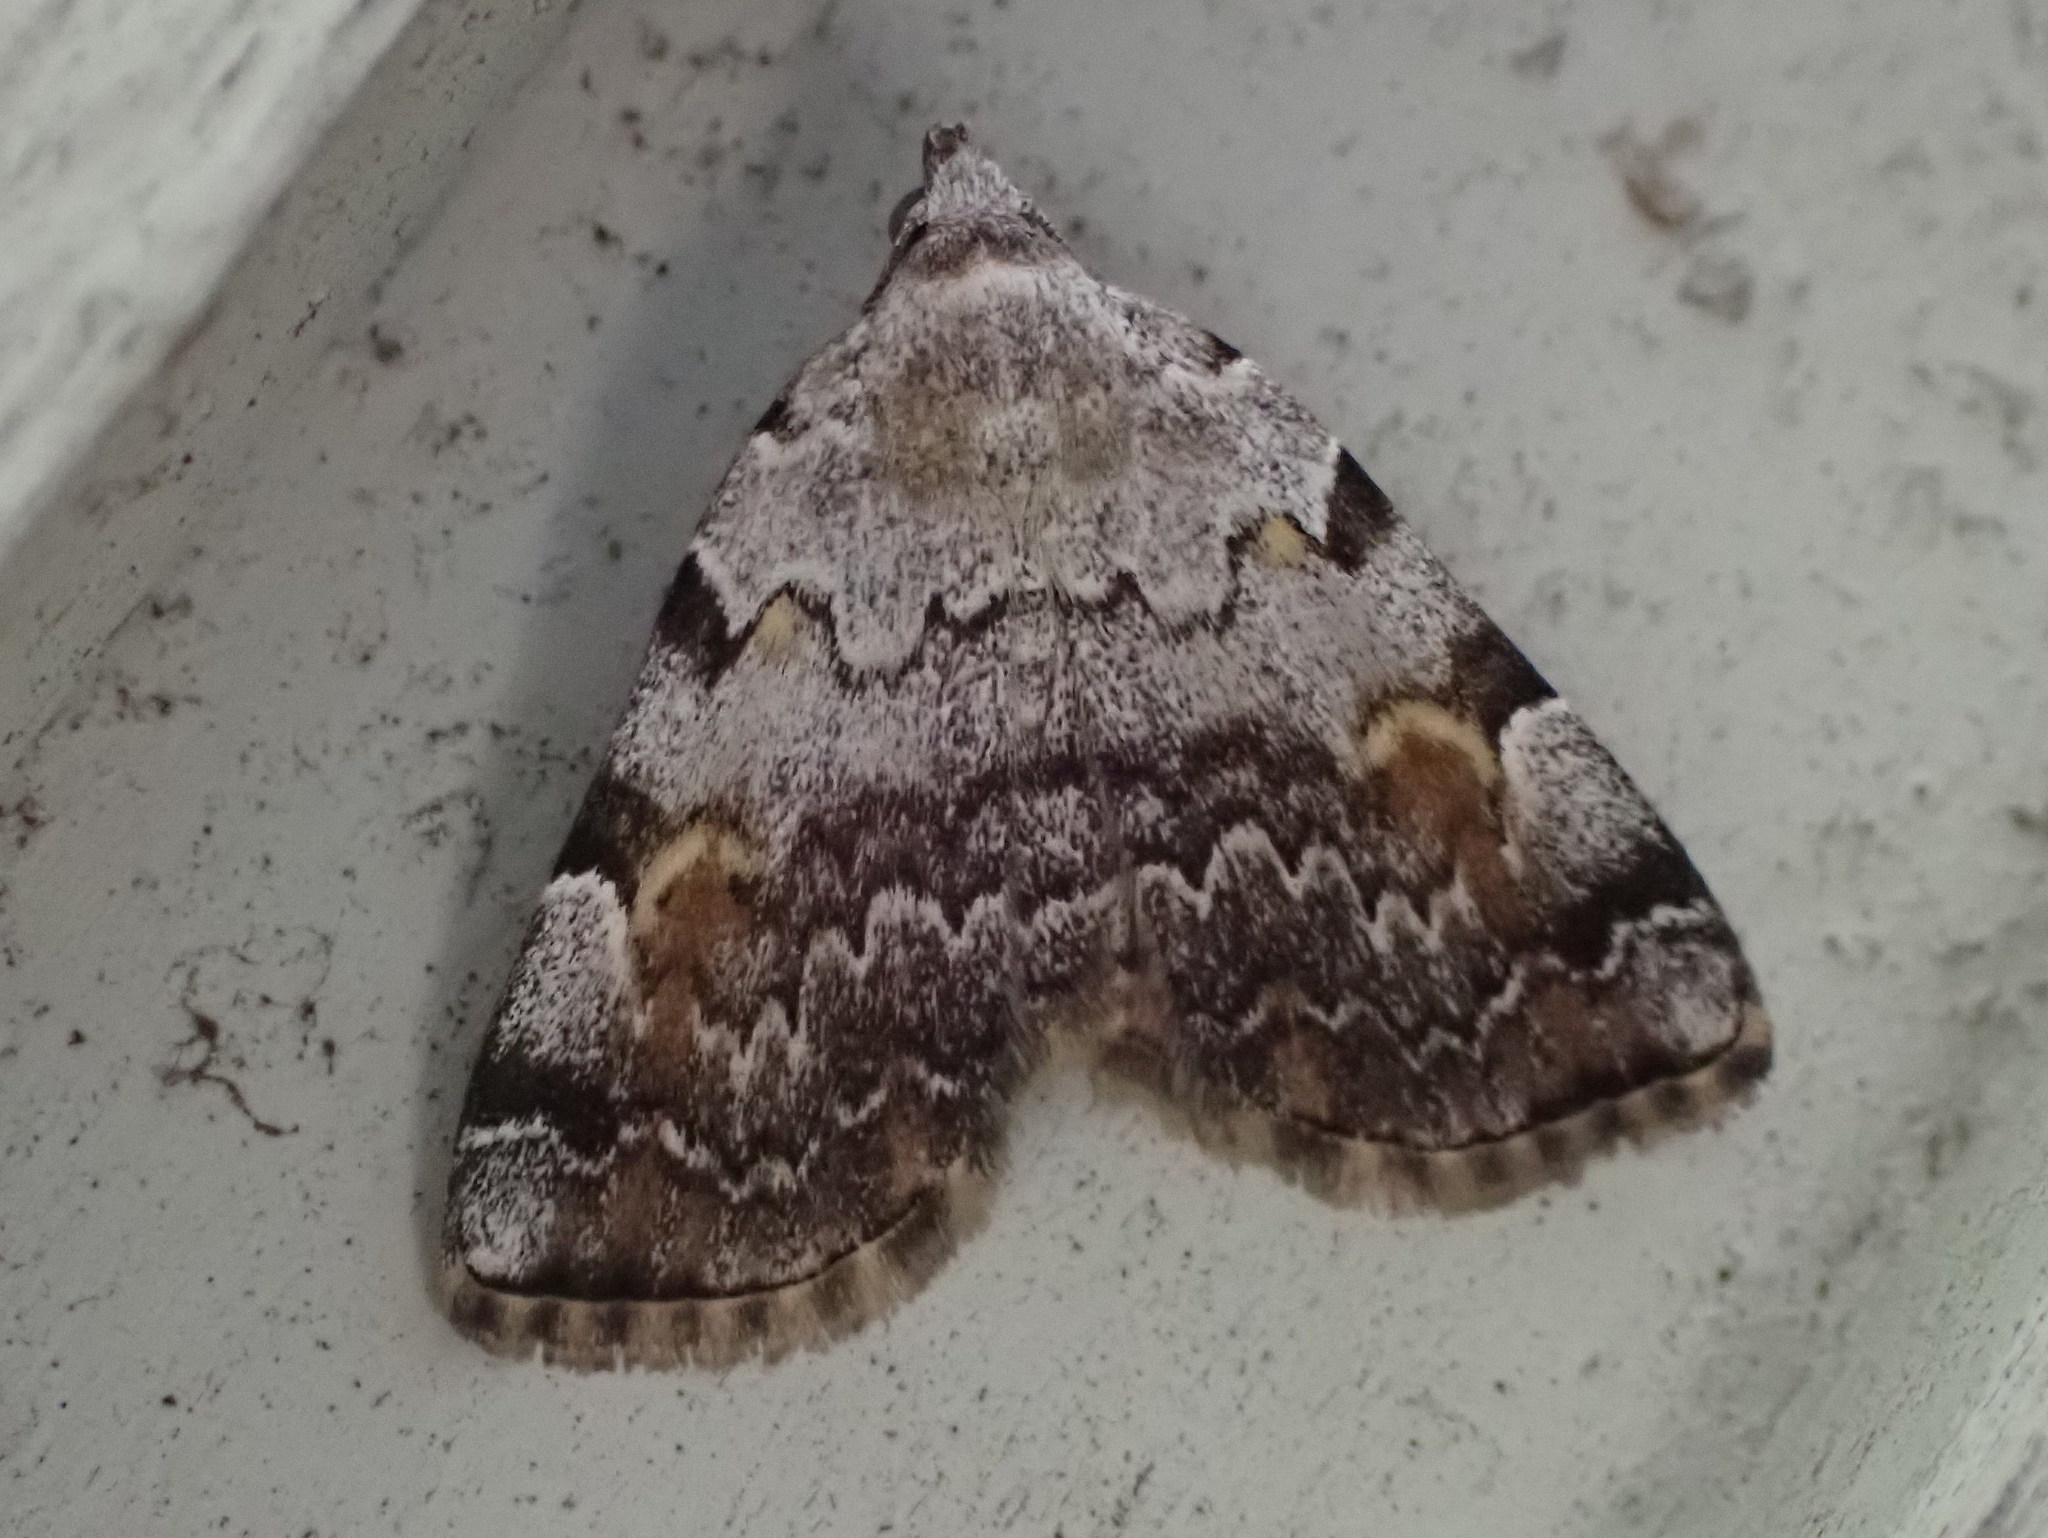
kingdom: Animalia
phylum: Arthropoda
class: Insecta
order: Lepidoptera
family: Erebidae
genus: Idia
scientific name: Idia americalis
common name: American idia moth
